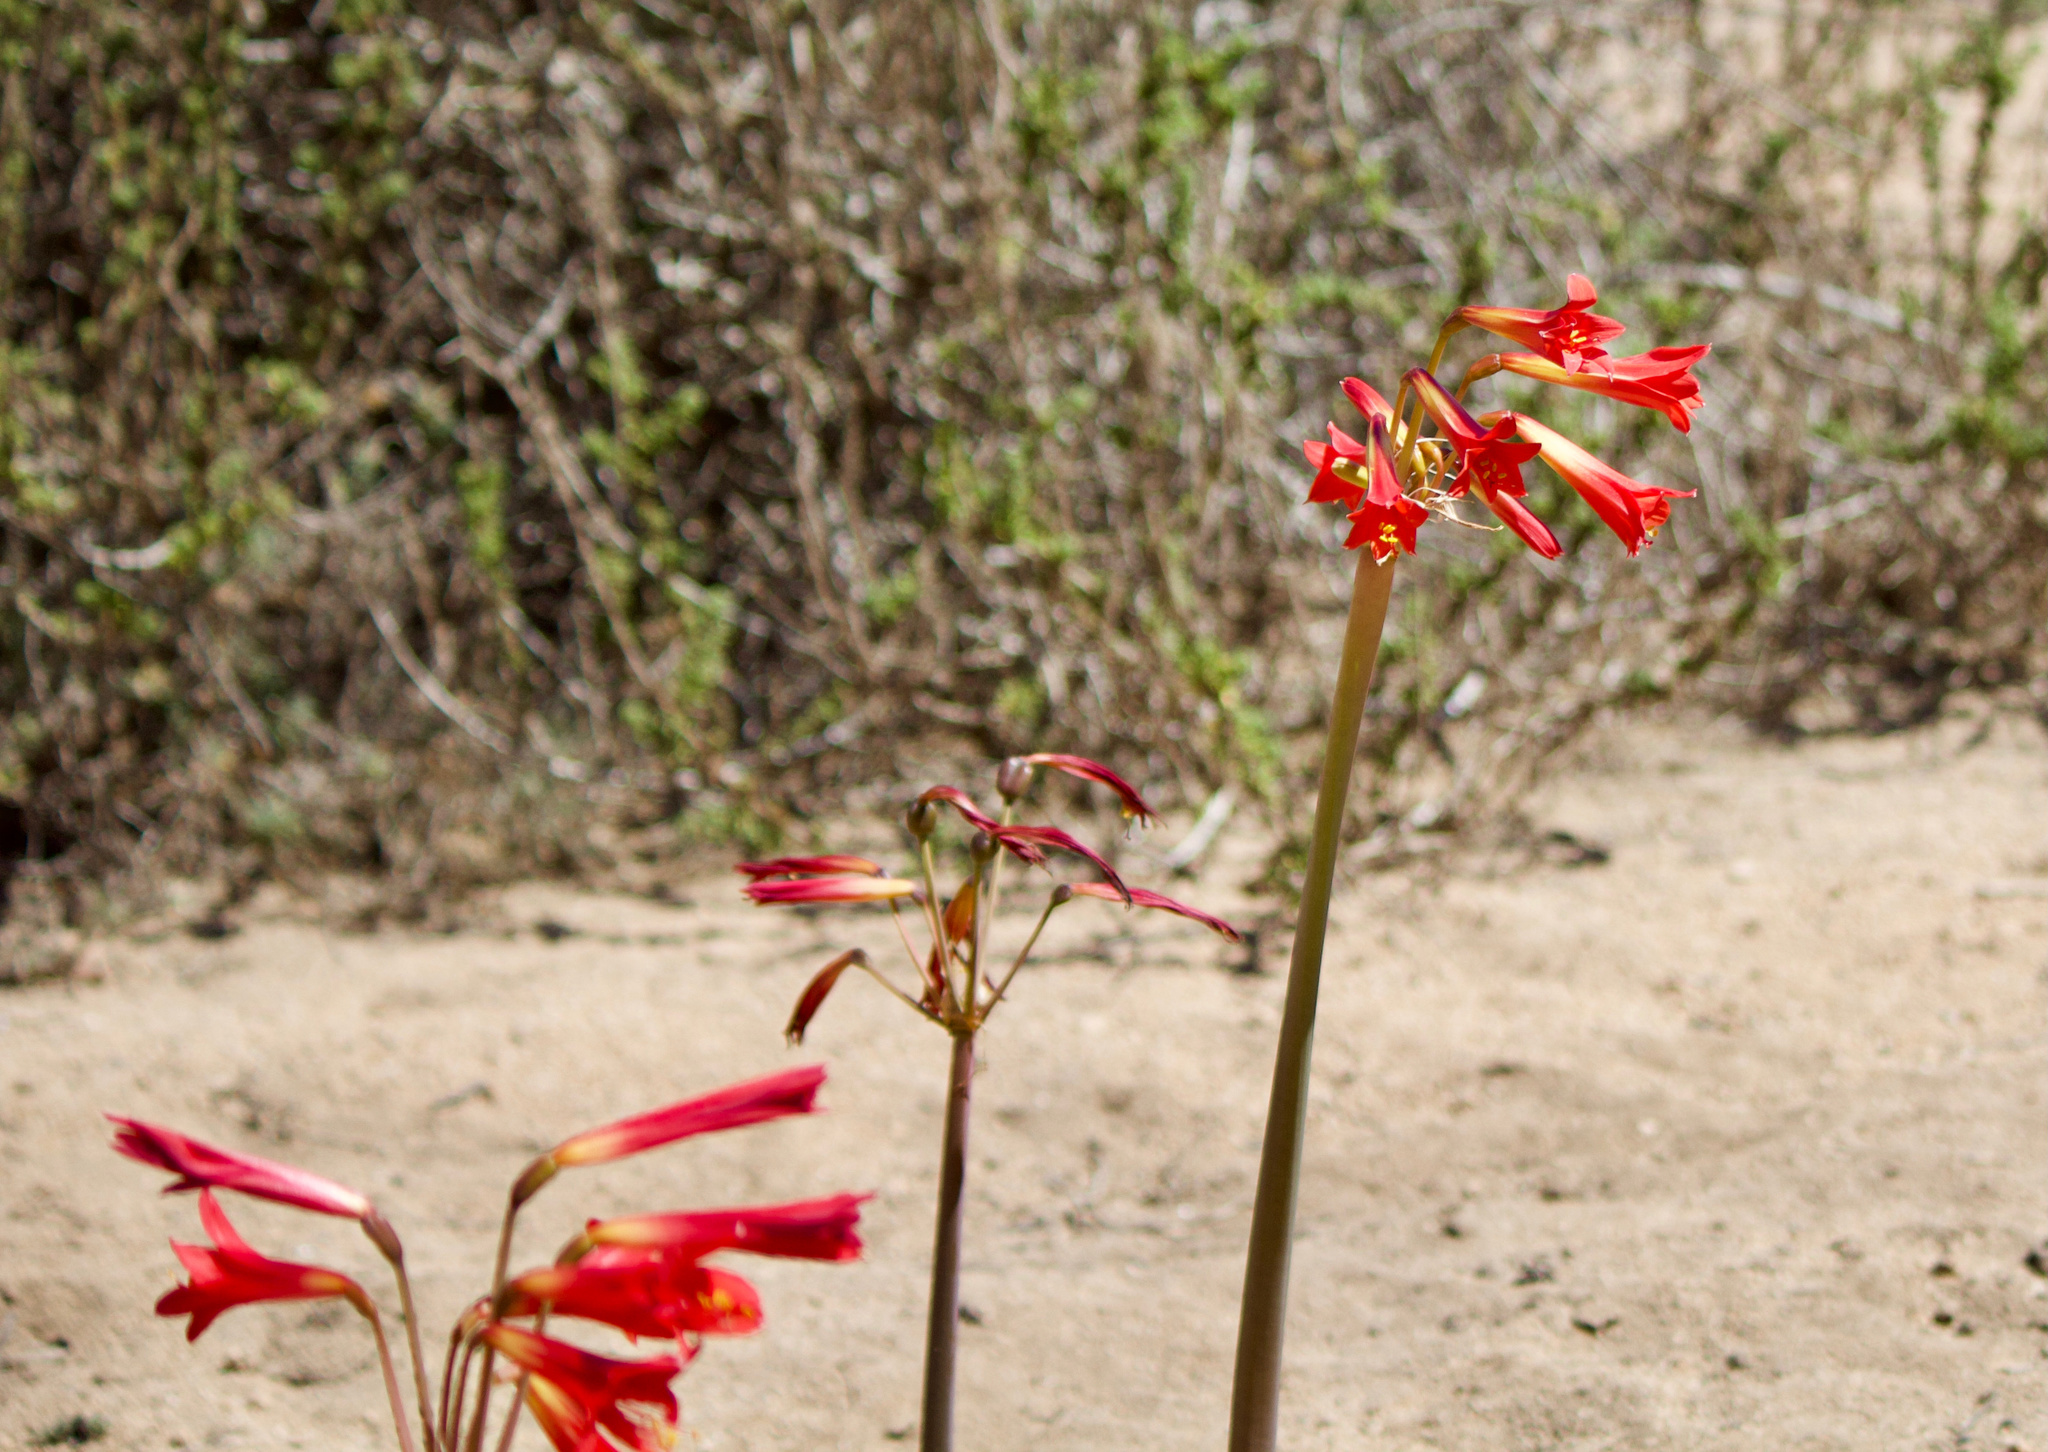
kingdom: Plantae
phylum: Tracheophyta
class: Liliopsida
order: Asparagales
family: Amaryllidaceae
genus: Phycella
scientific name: Phycella cyrtanthoides
